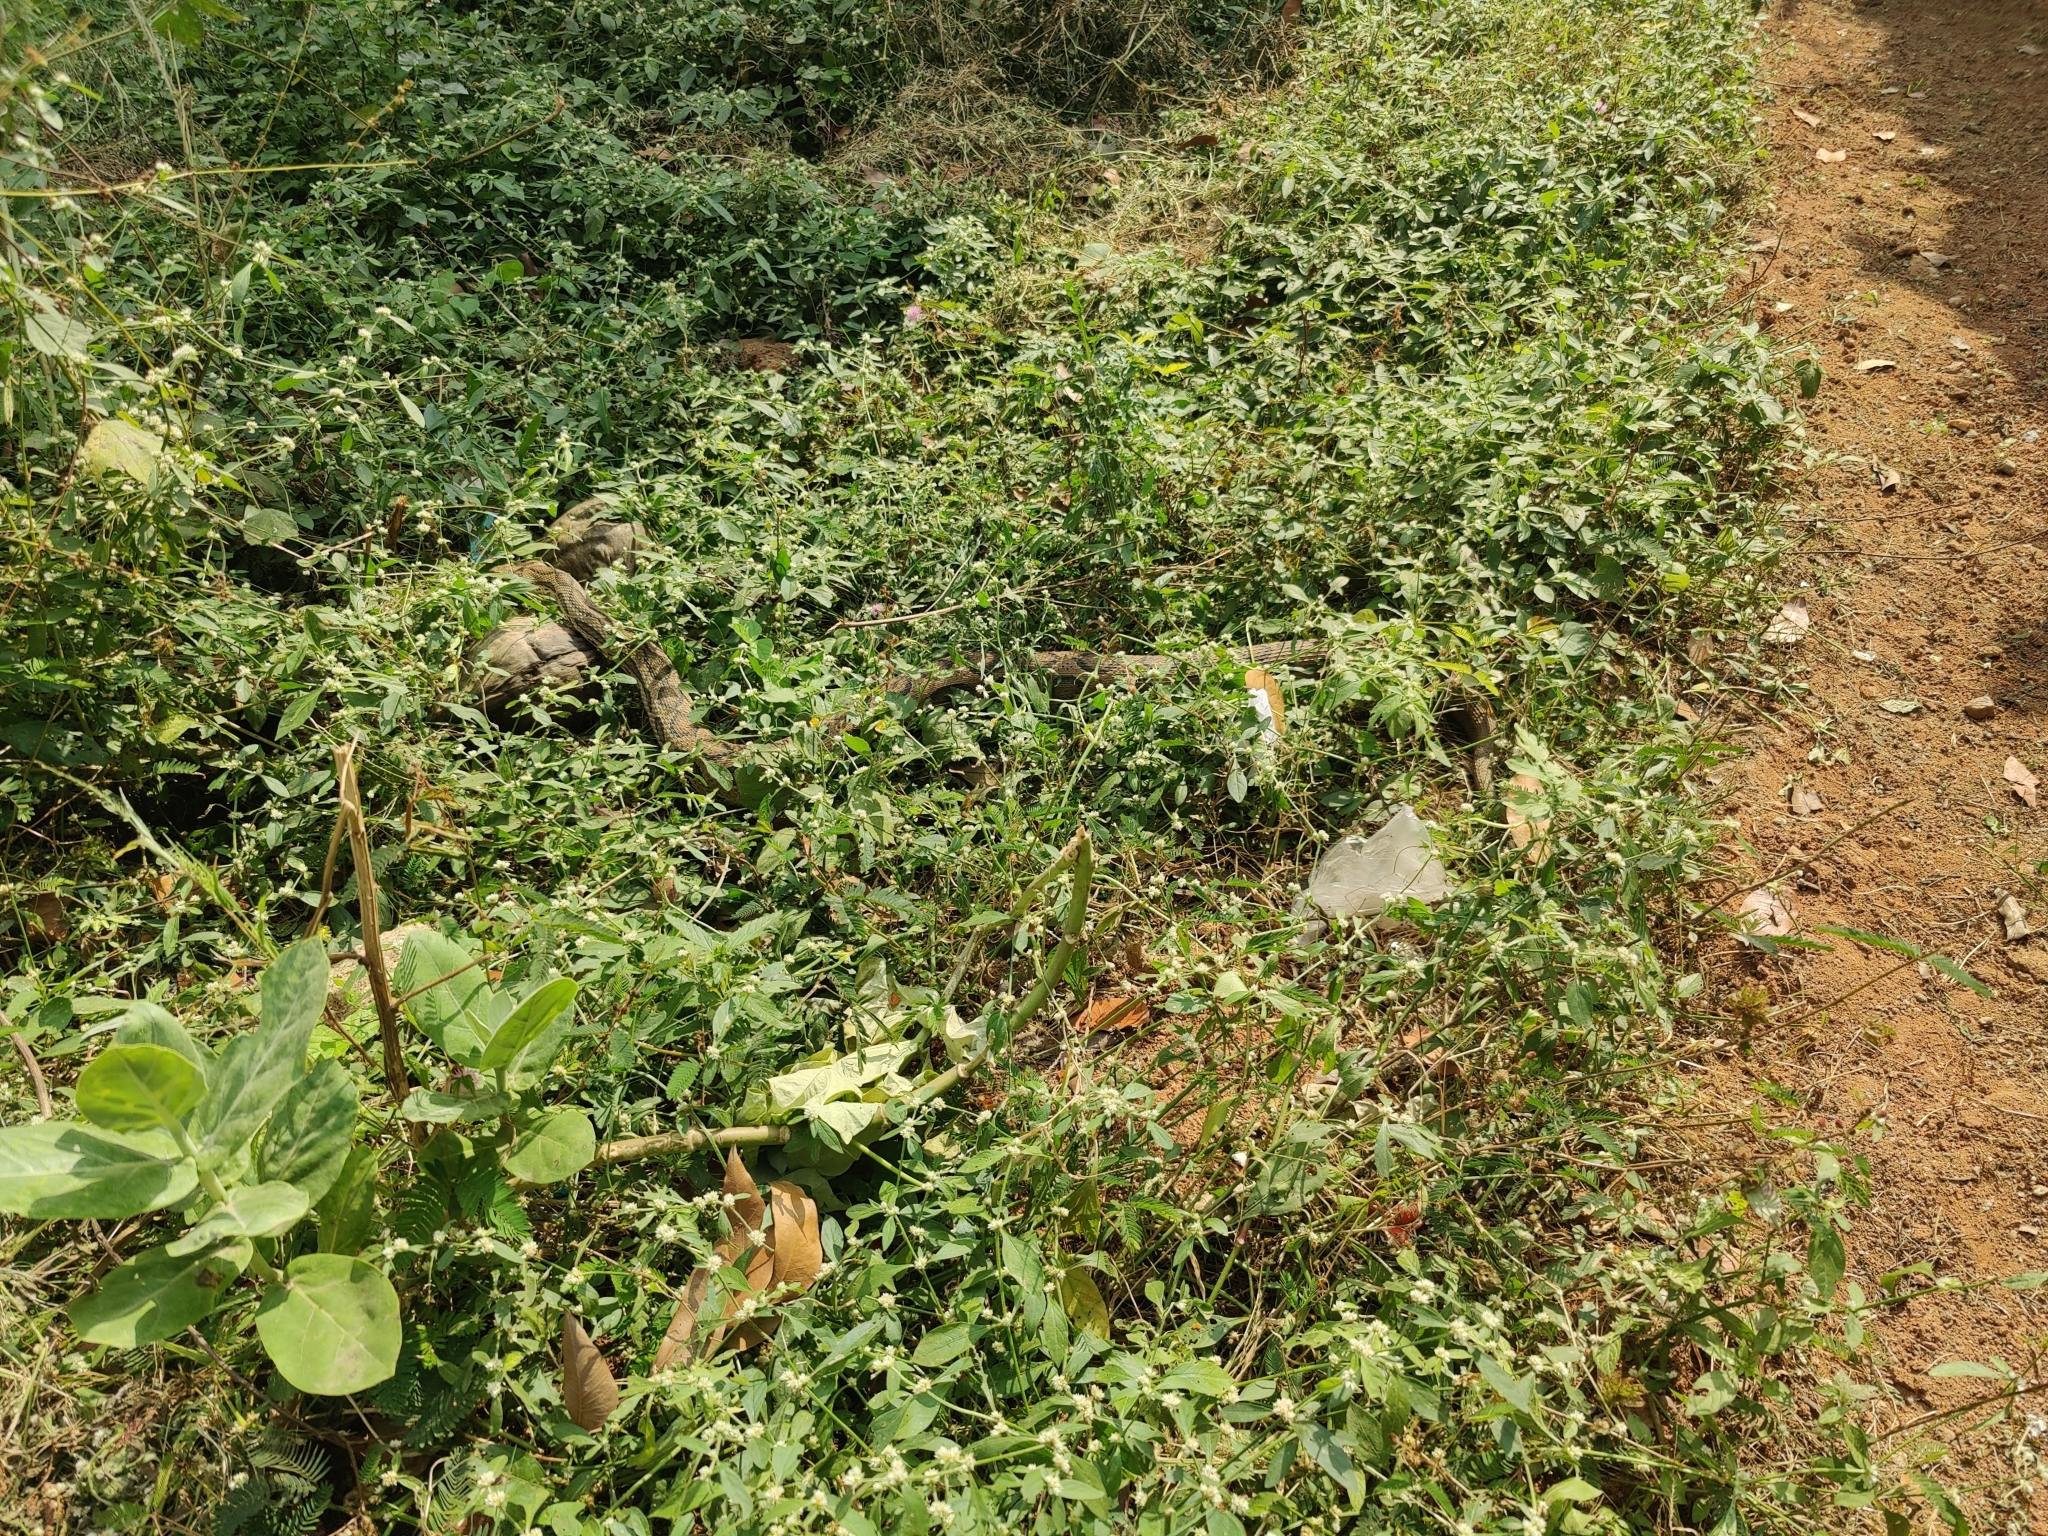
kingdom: Animalia
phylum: Chordata
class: Squamata
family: Viperidae
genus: Daboia
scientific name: Daboia russelii
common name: Western russel’s viper
